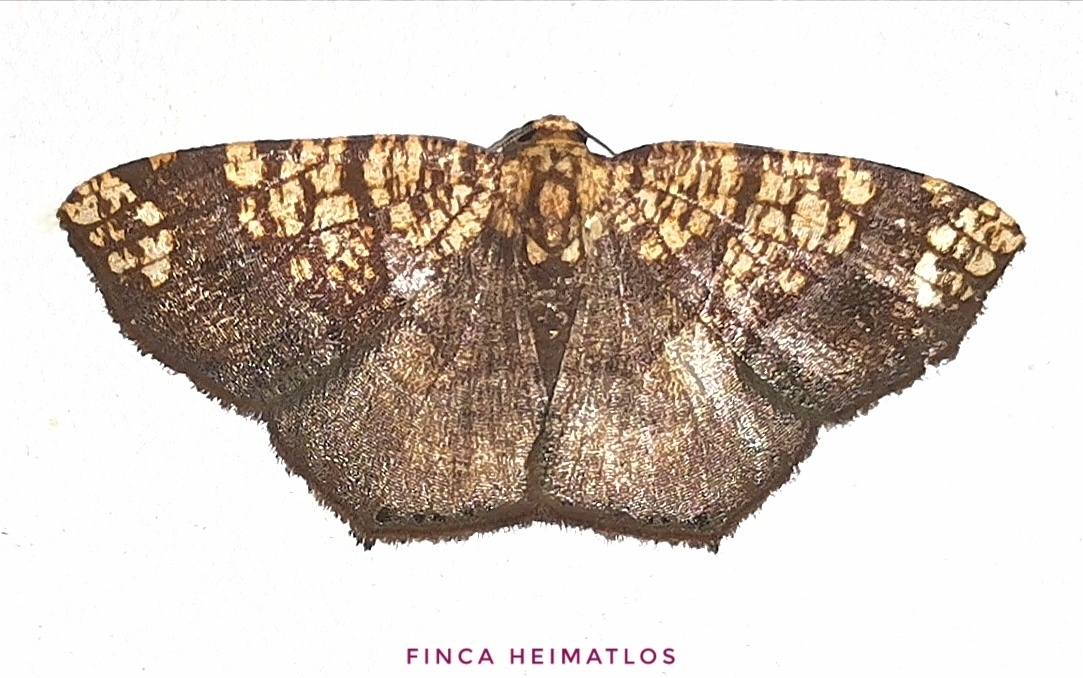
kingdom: Animalia
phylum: Arthropoda
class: Insecta
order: Lepidoptera
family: Geometridae
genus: Nematocampa
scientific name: Nematocampa completa
